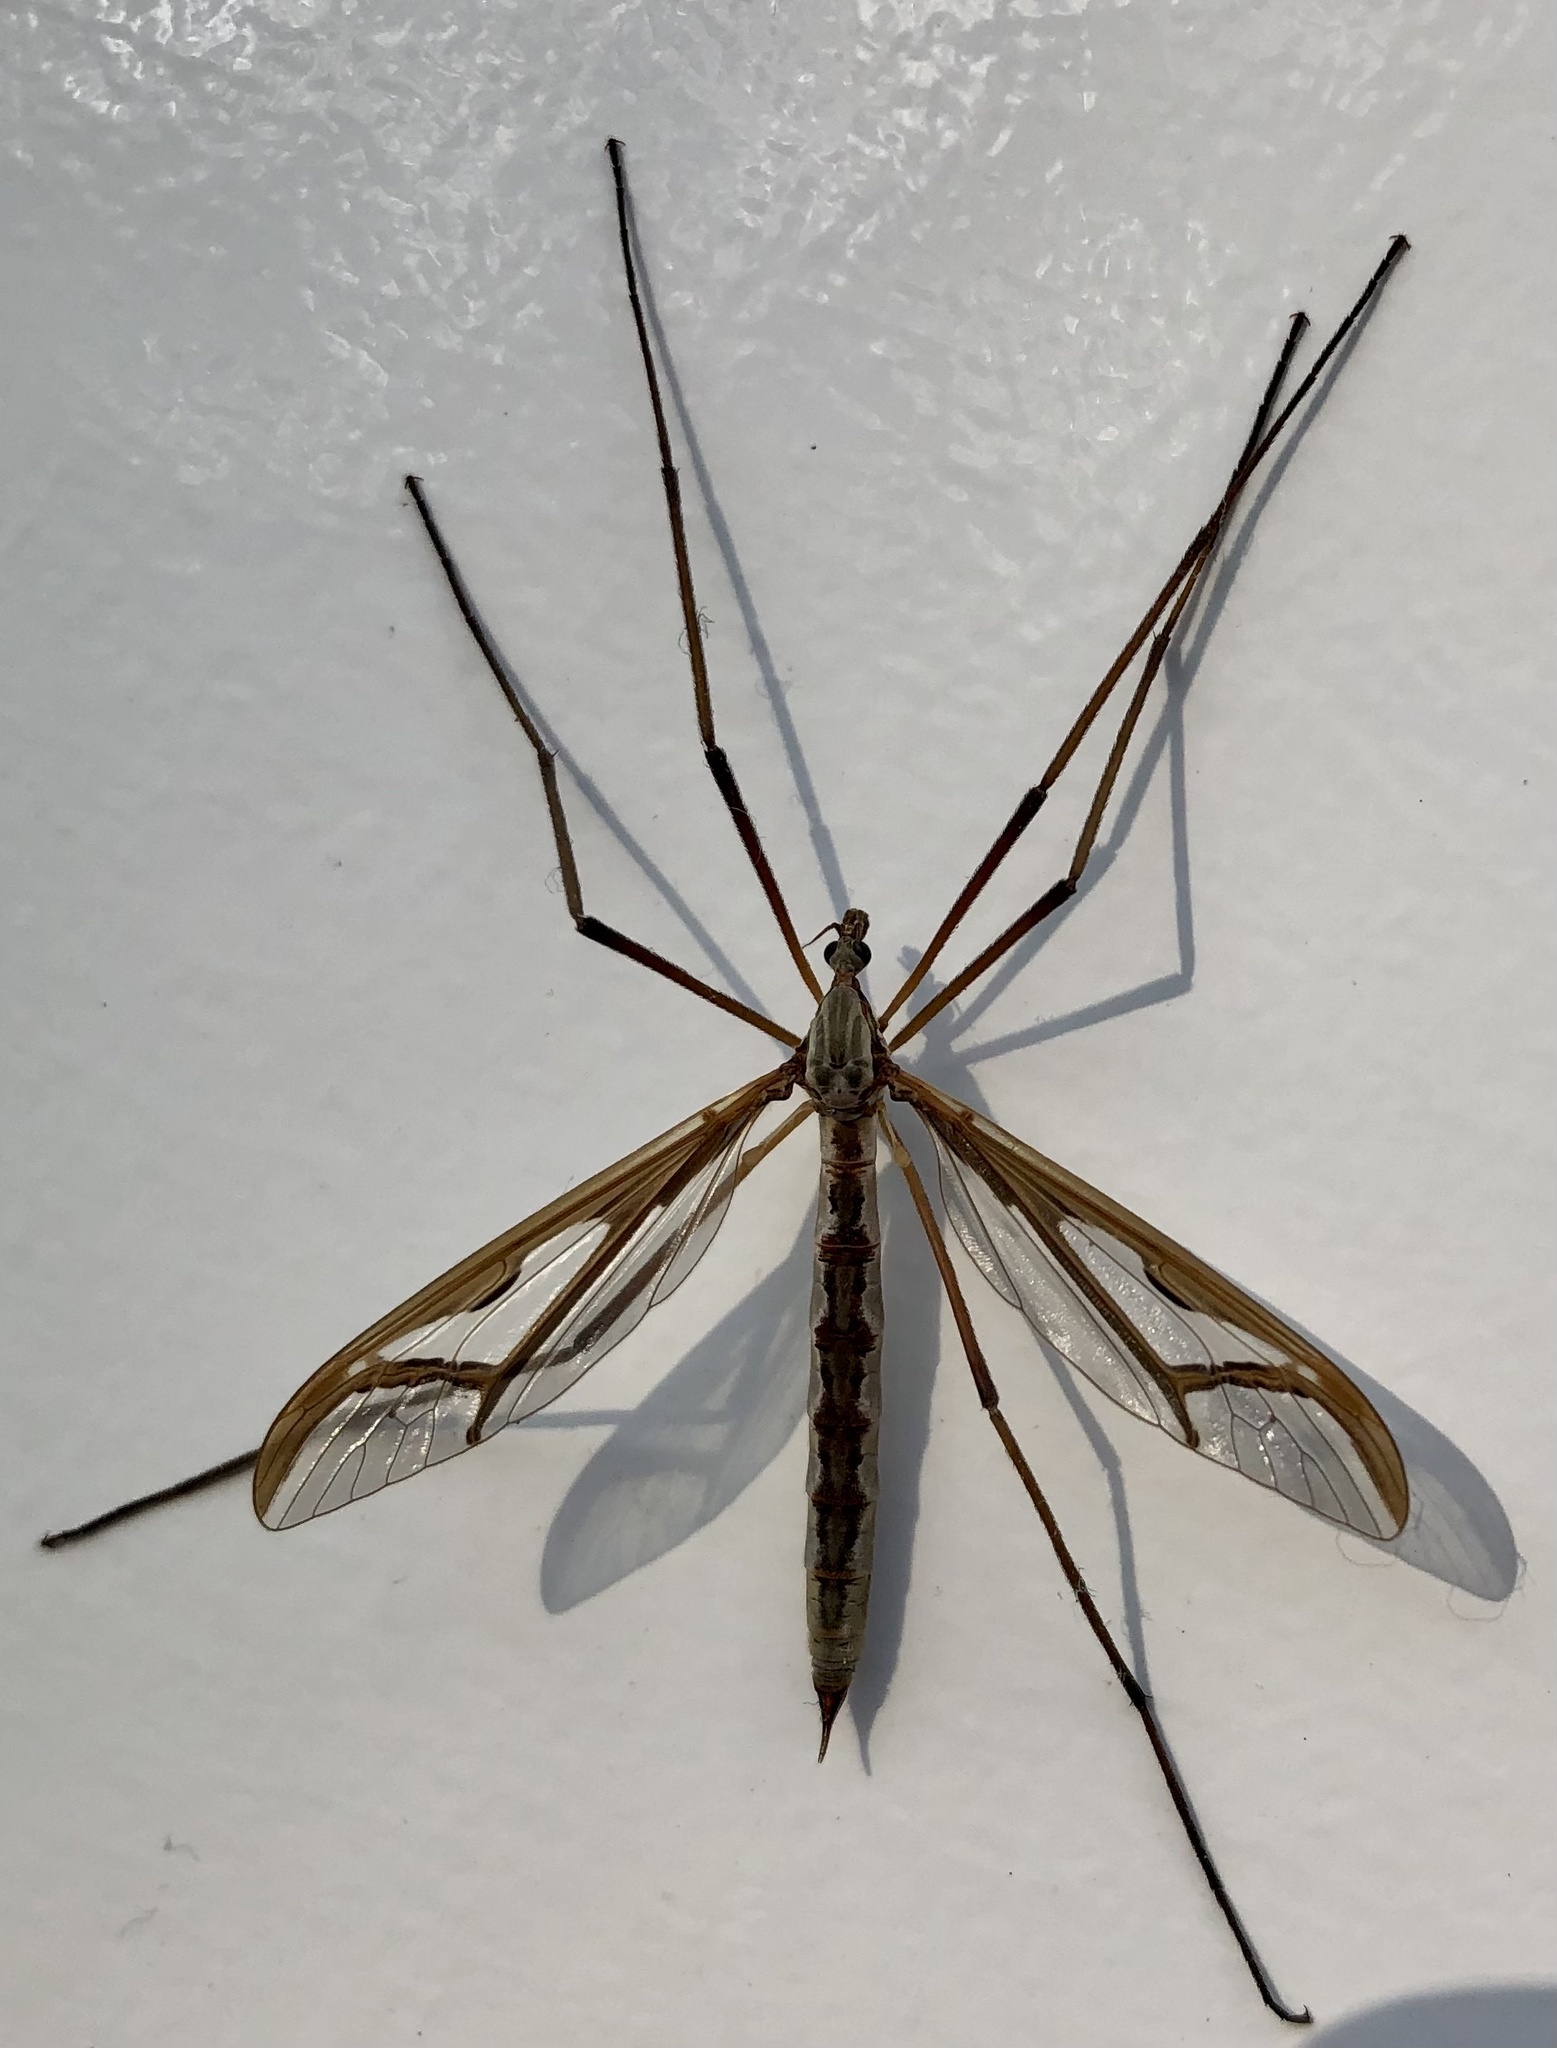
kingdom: Animalia
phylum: Arthropoda
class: Insecta
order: Diptera
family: Pediciidae
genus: Pedicia
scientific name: Pedicia rivosa
